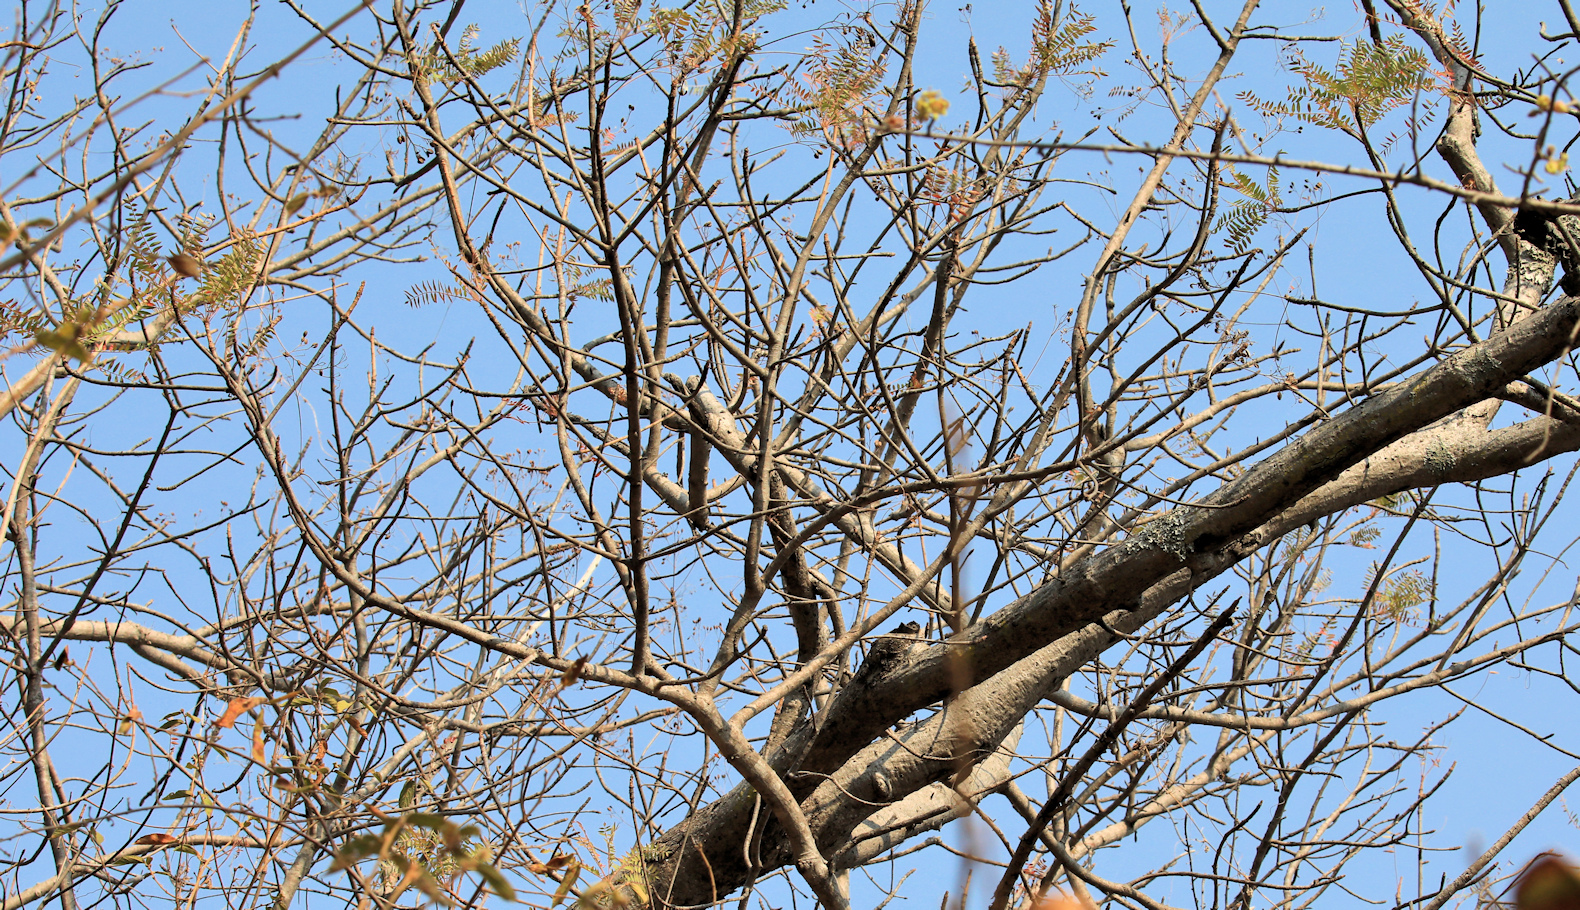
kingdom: Plantae
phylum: Tracheophyta
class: Magnoliopsida
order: Sapindales
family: Kirkiaceae
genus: Kirkia
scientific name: Kirkia wilmsii
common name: Mountain seringa
